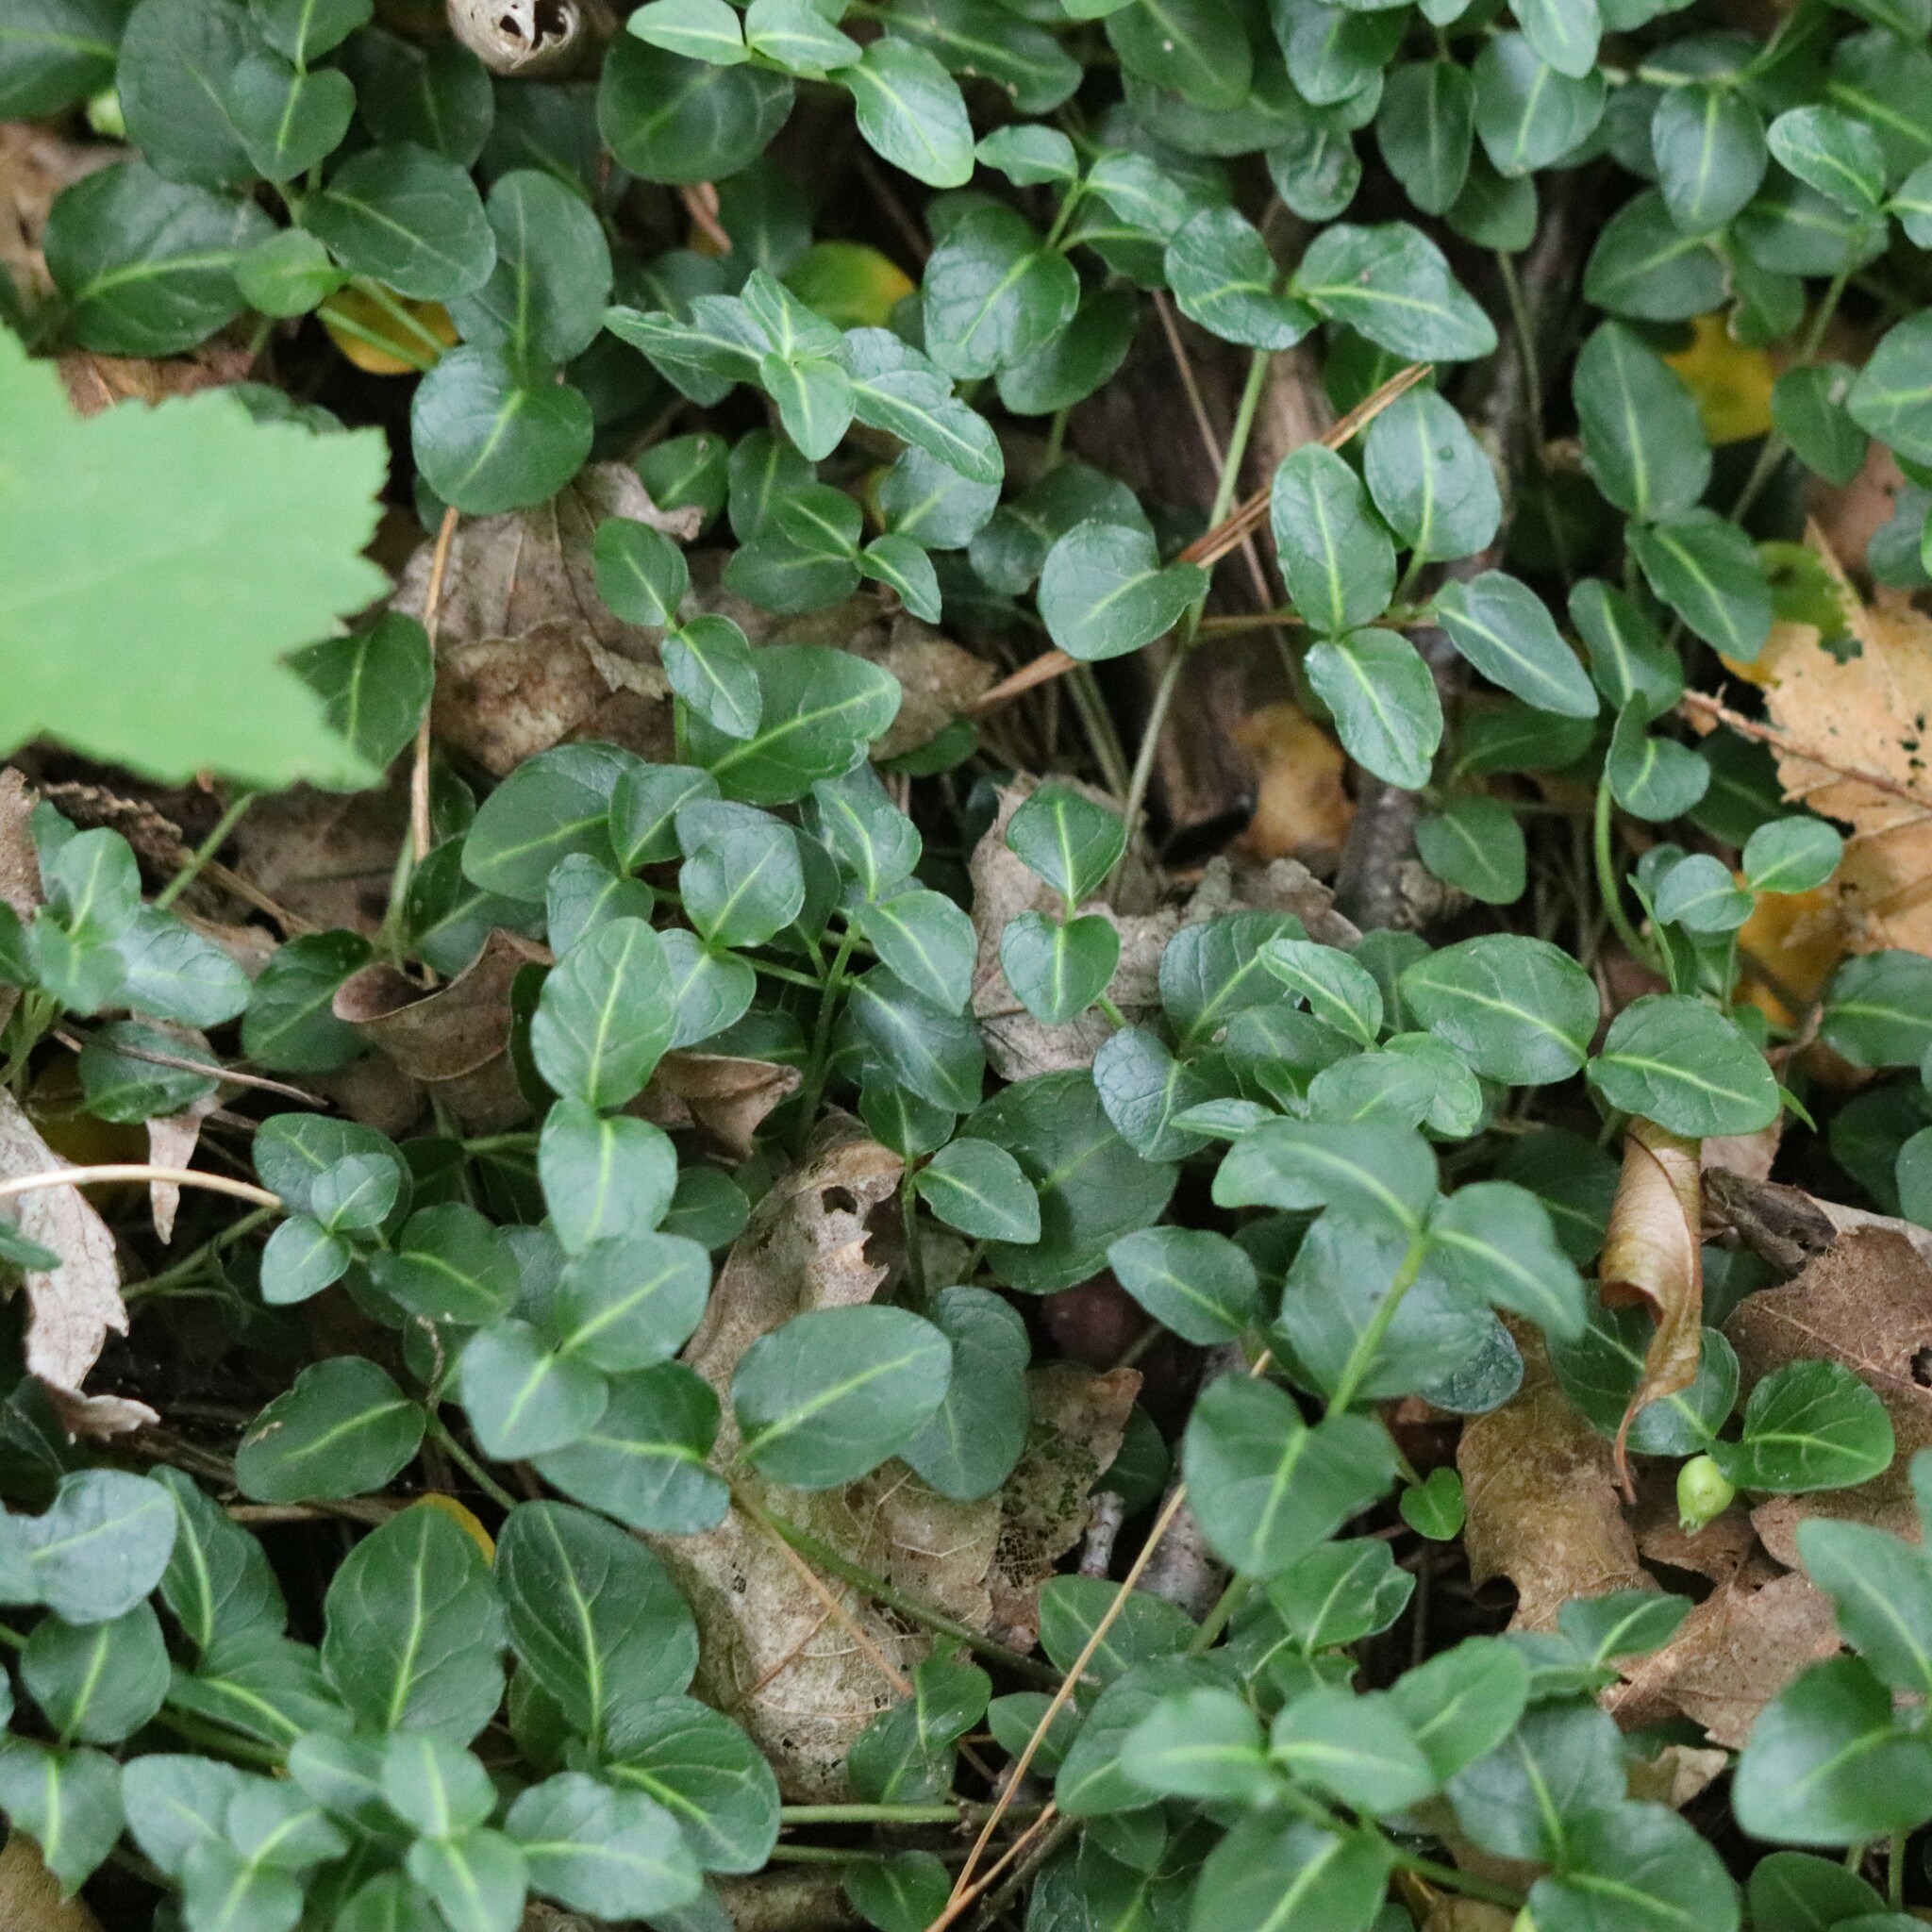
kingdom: Plantae
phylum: Tracheophyta
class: Magnoliopsida
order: Gentianales
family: Rubiaceae
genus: Mitchella
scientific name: Mitchella repens
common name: Partridge-berry
